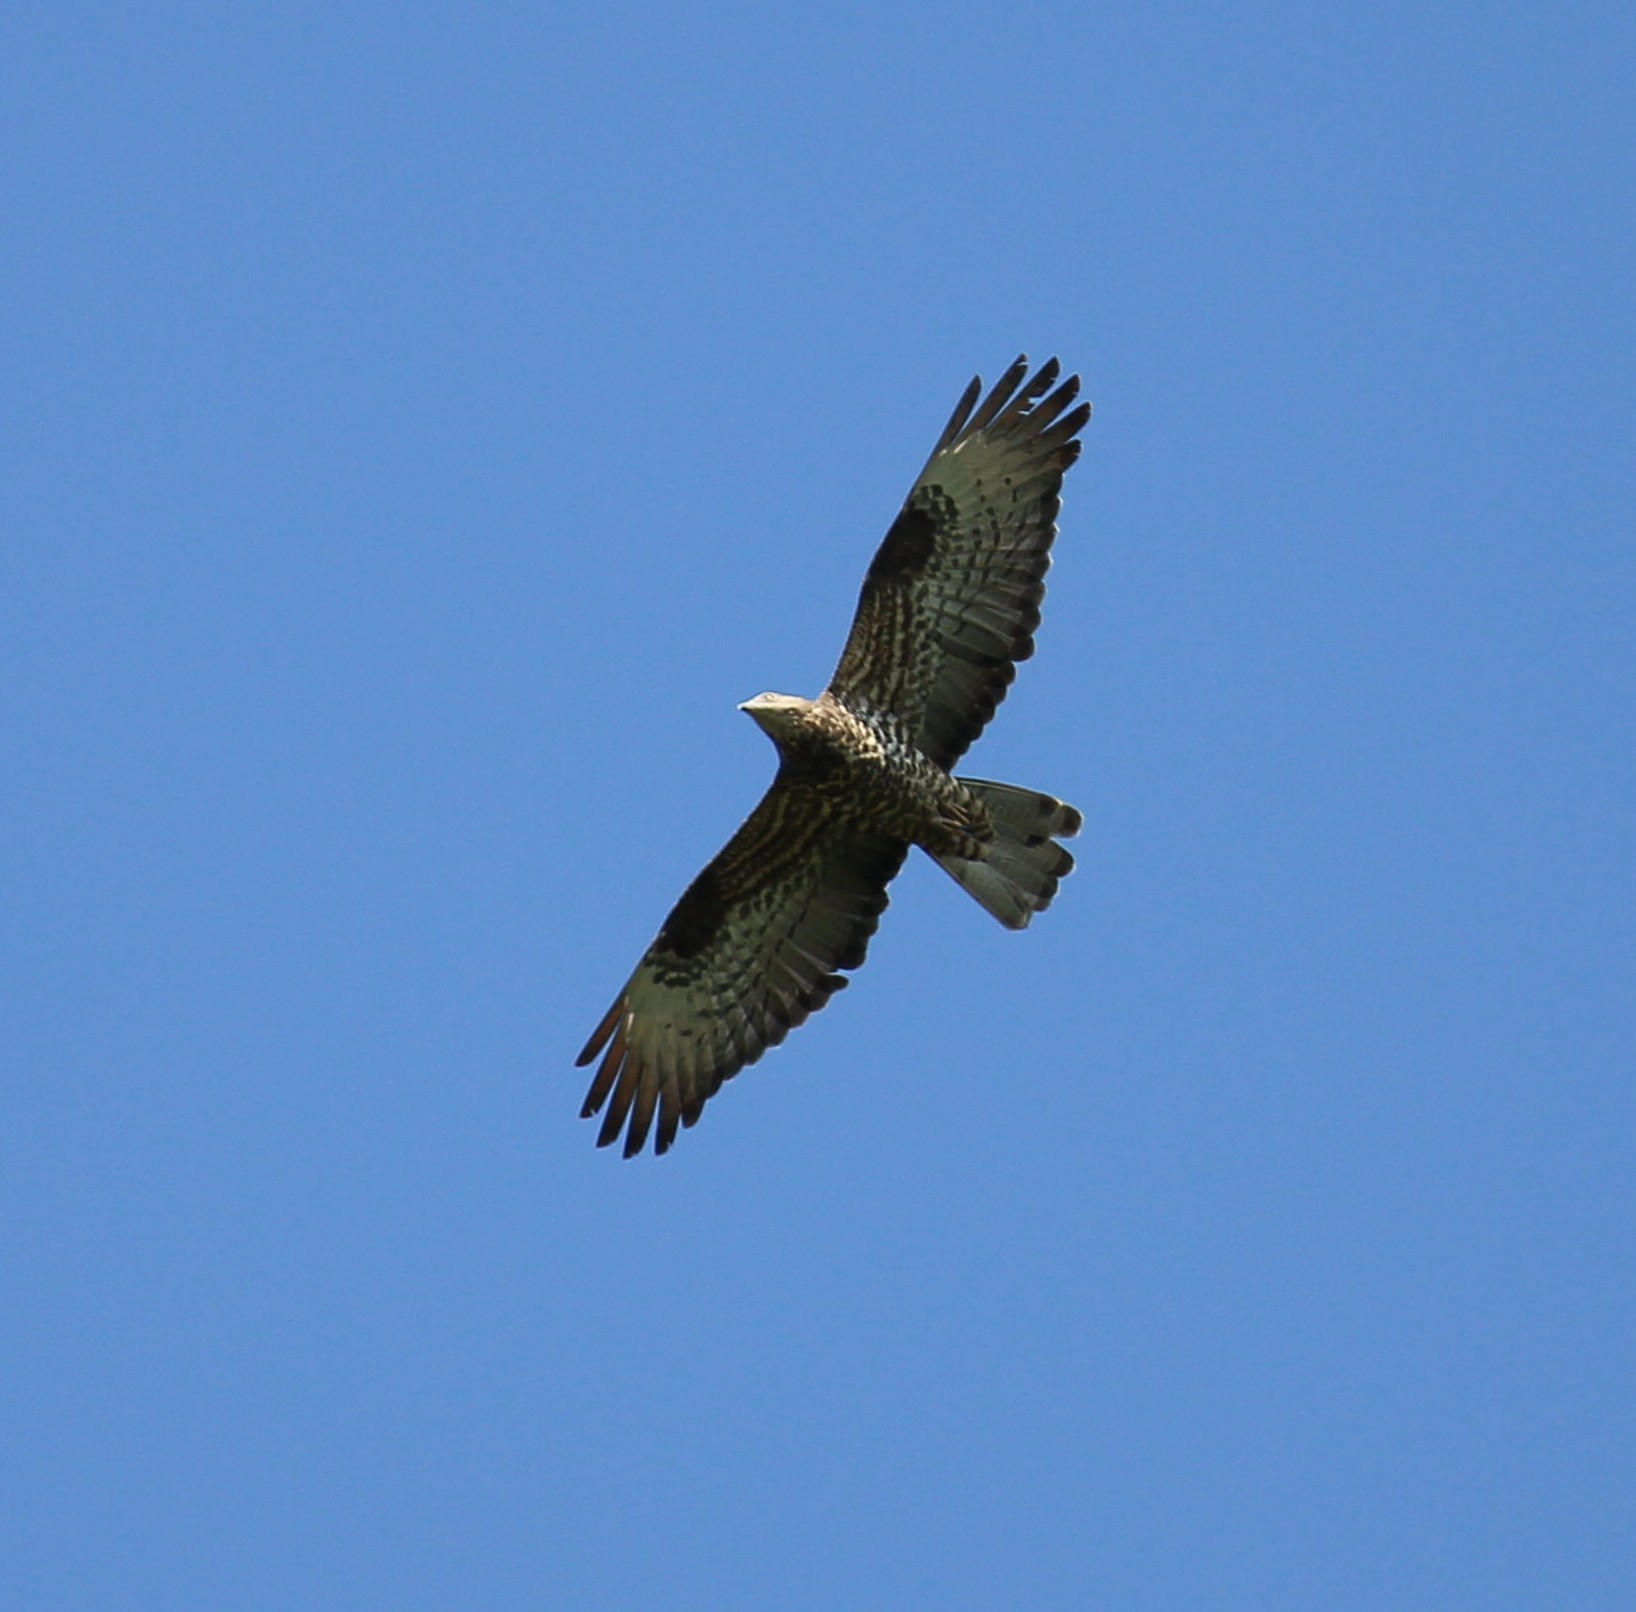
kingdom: Animalia
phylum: Chordata
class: Aves
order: Accipitriformes
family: Accipitridae
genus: Pernis
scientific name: Pernis apivorus
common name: European honey buzzard
